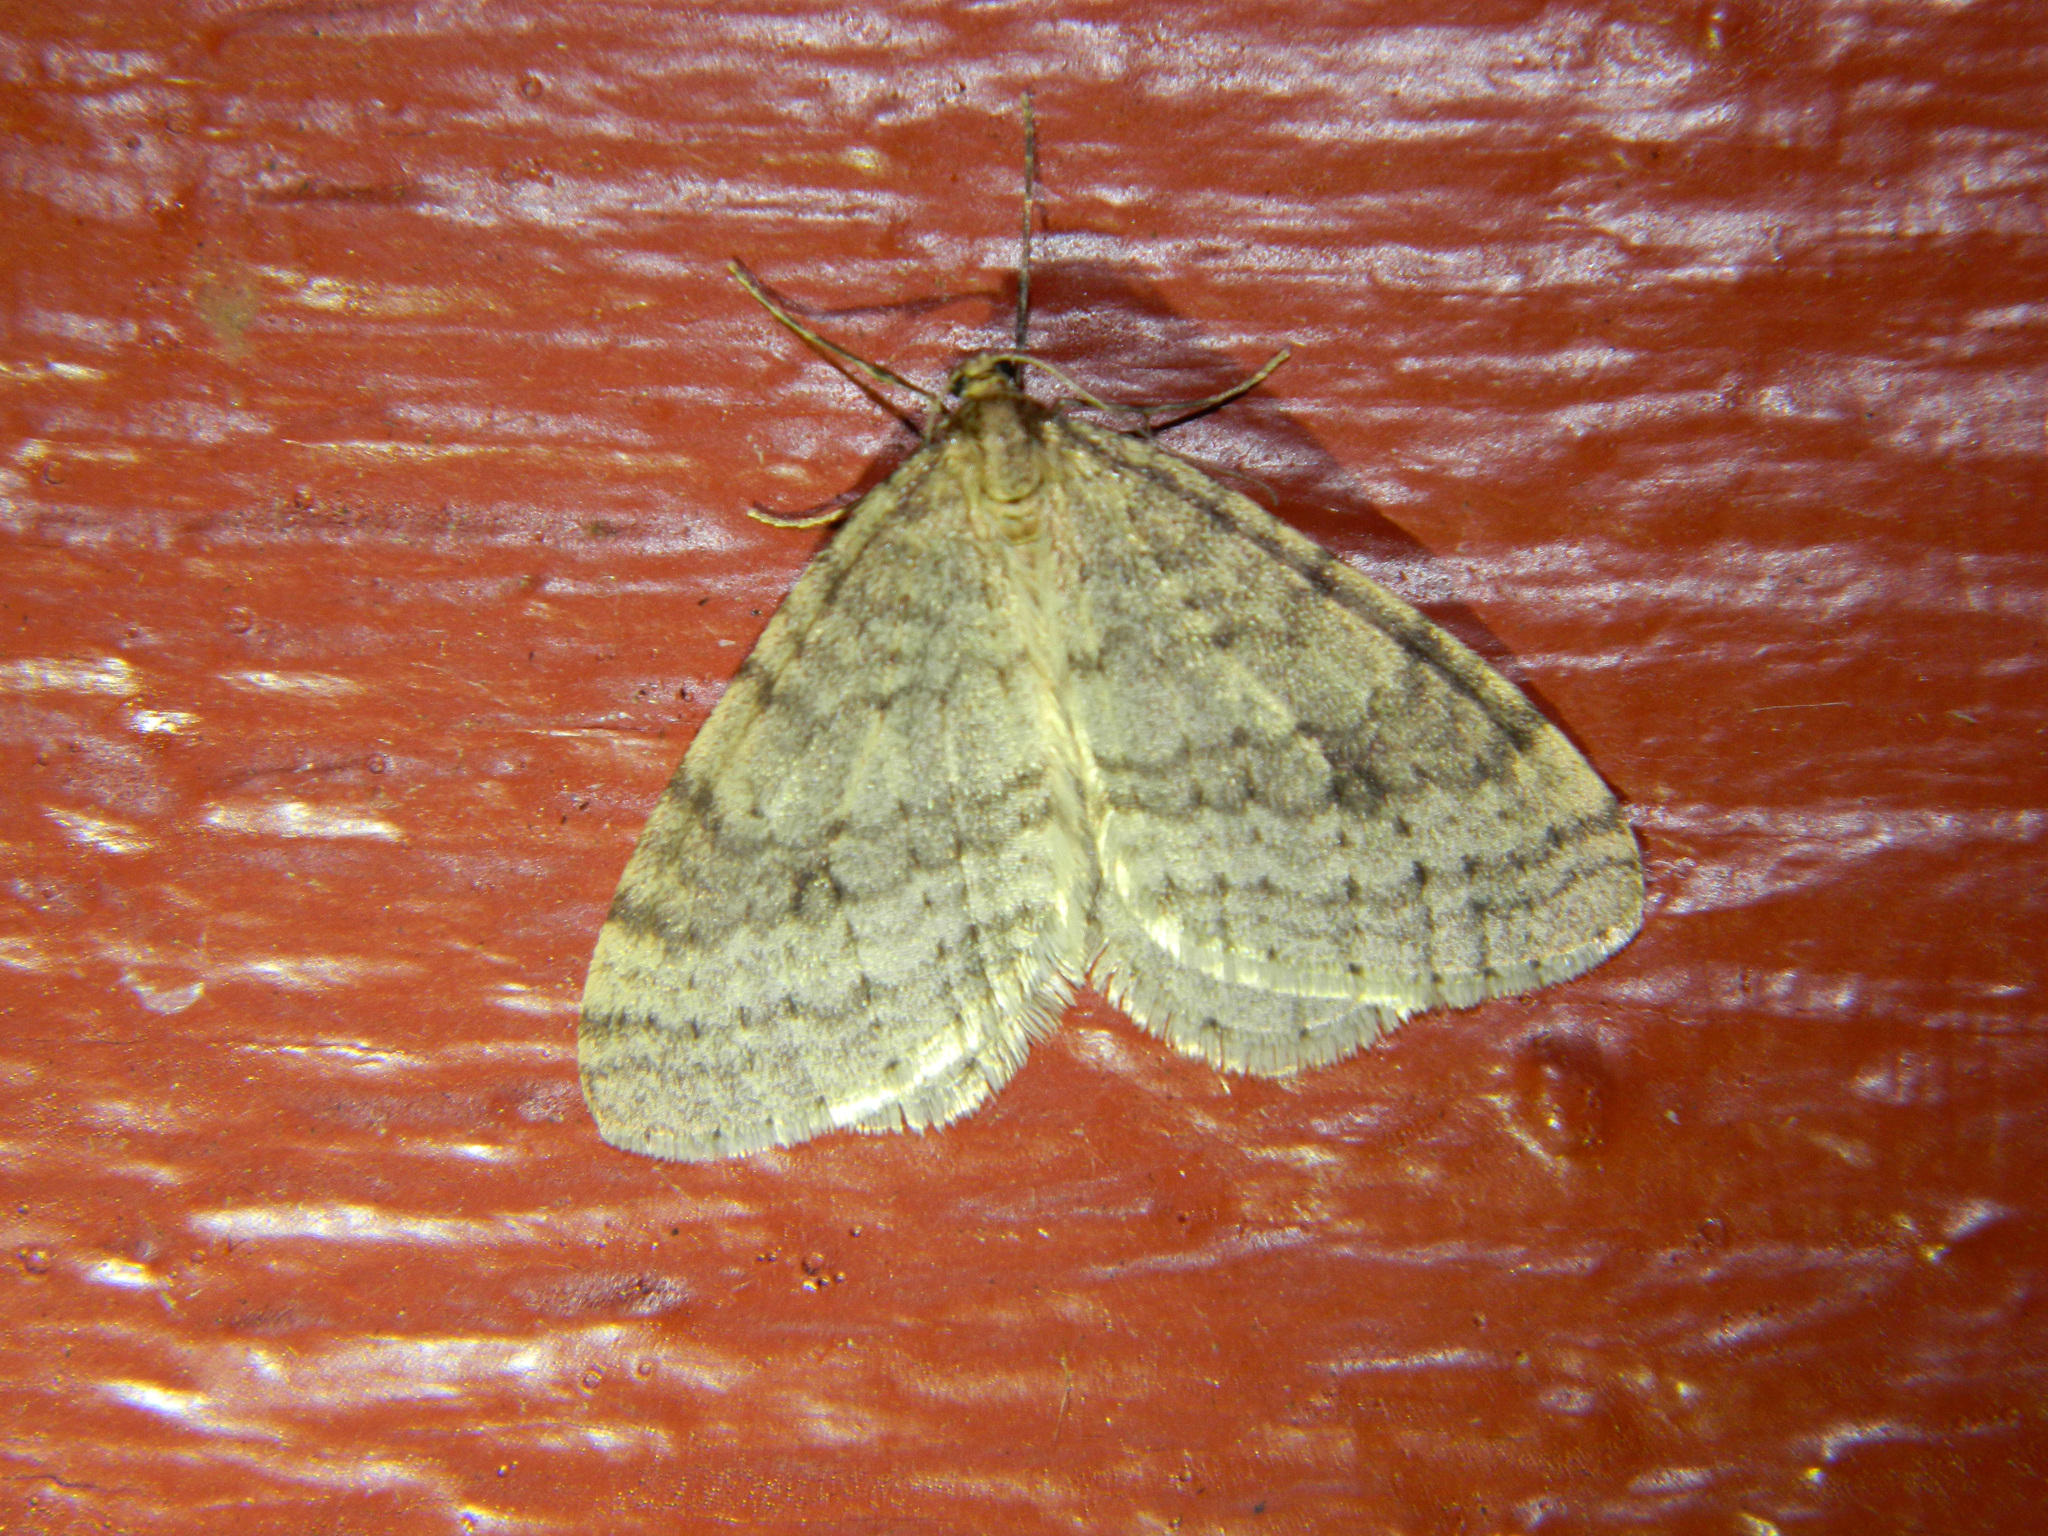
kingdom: Animalia
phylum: Arthropoda
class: Insecta
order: Lepidoptera
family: Geometridae
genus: Operophtera
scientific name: Operophtera bruceata
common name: Bruce spanworm
